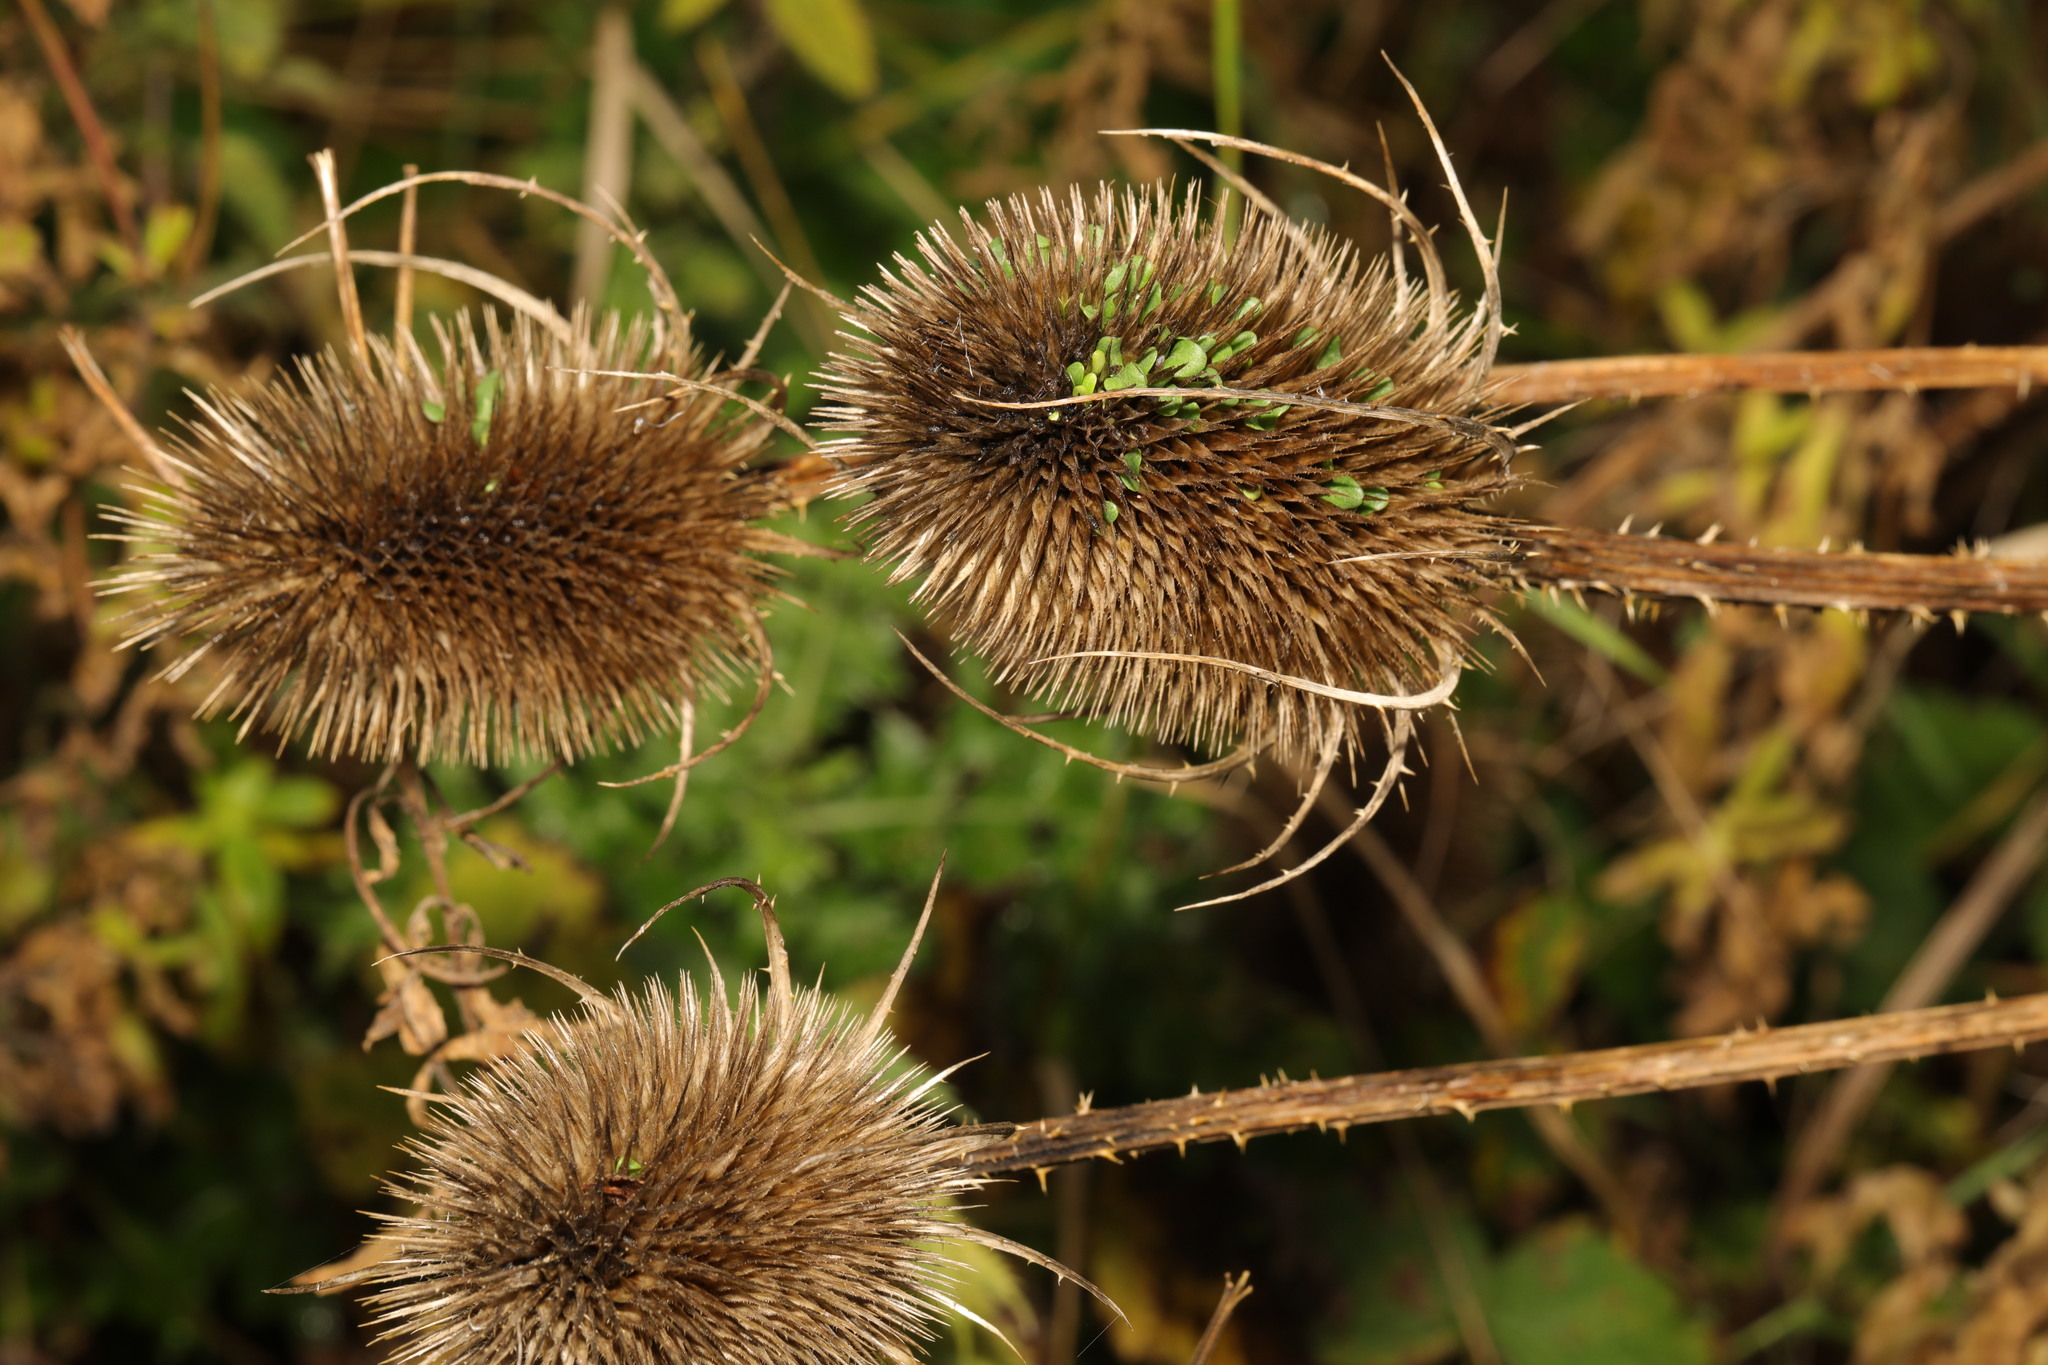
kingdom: Plantae
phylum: Tracheophyta
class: Magnoliopsida
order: Dipsacales
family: Caprifoliaceae
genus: Dipsacus
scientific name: Dipsacus fullonum
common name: Teasel
